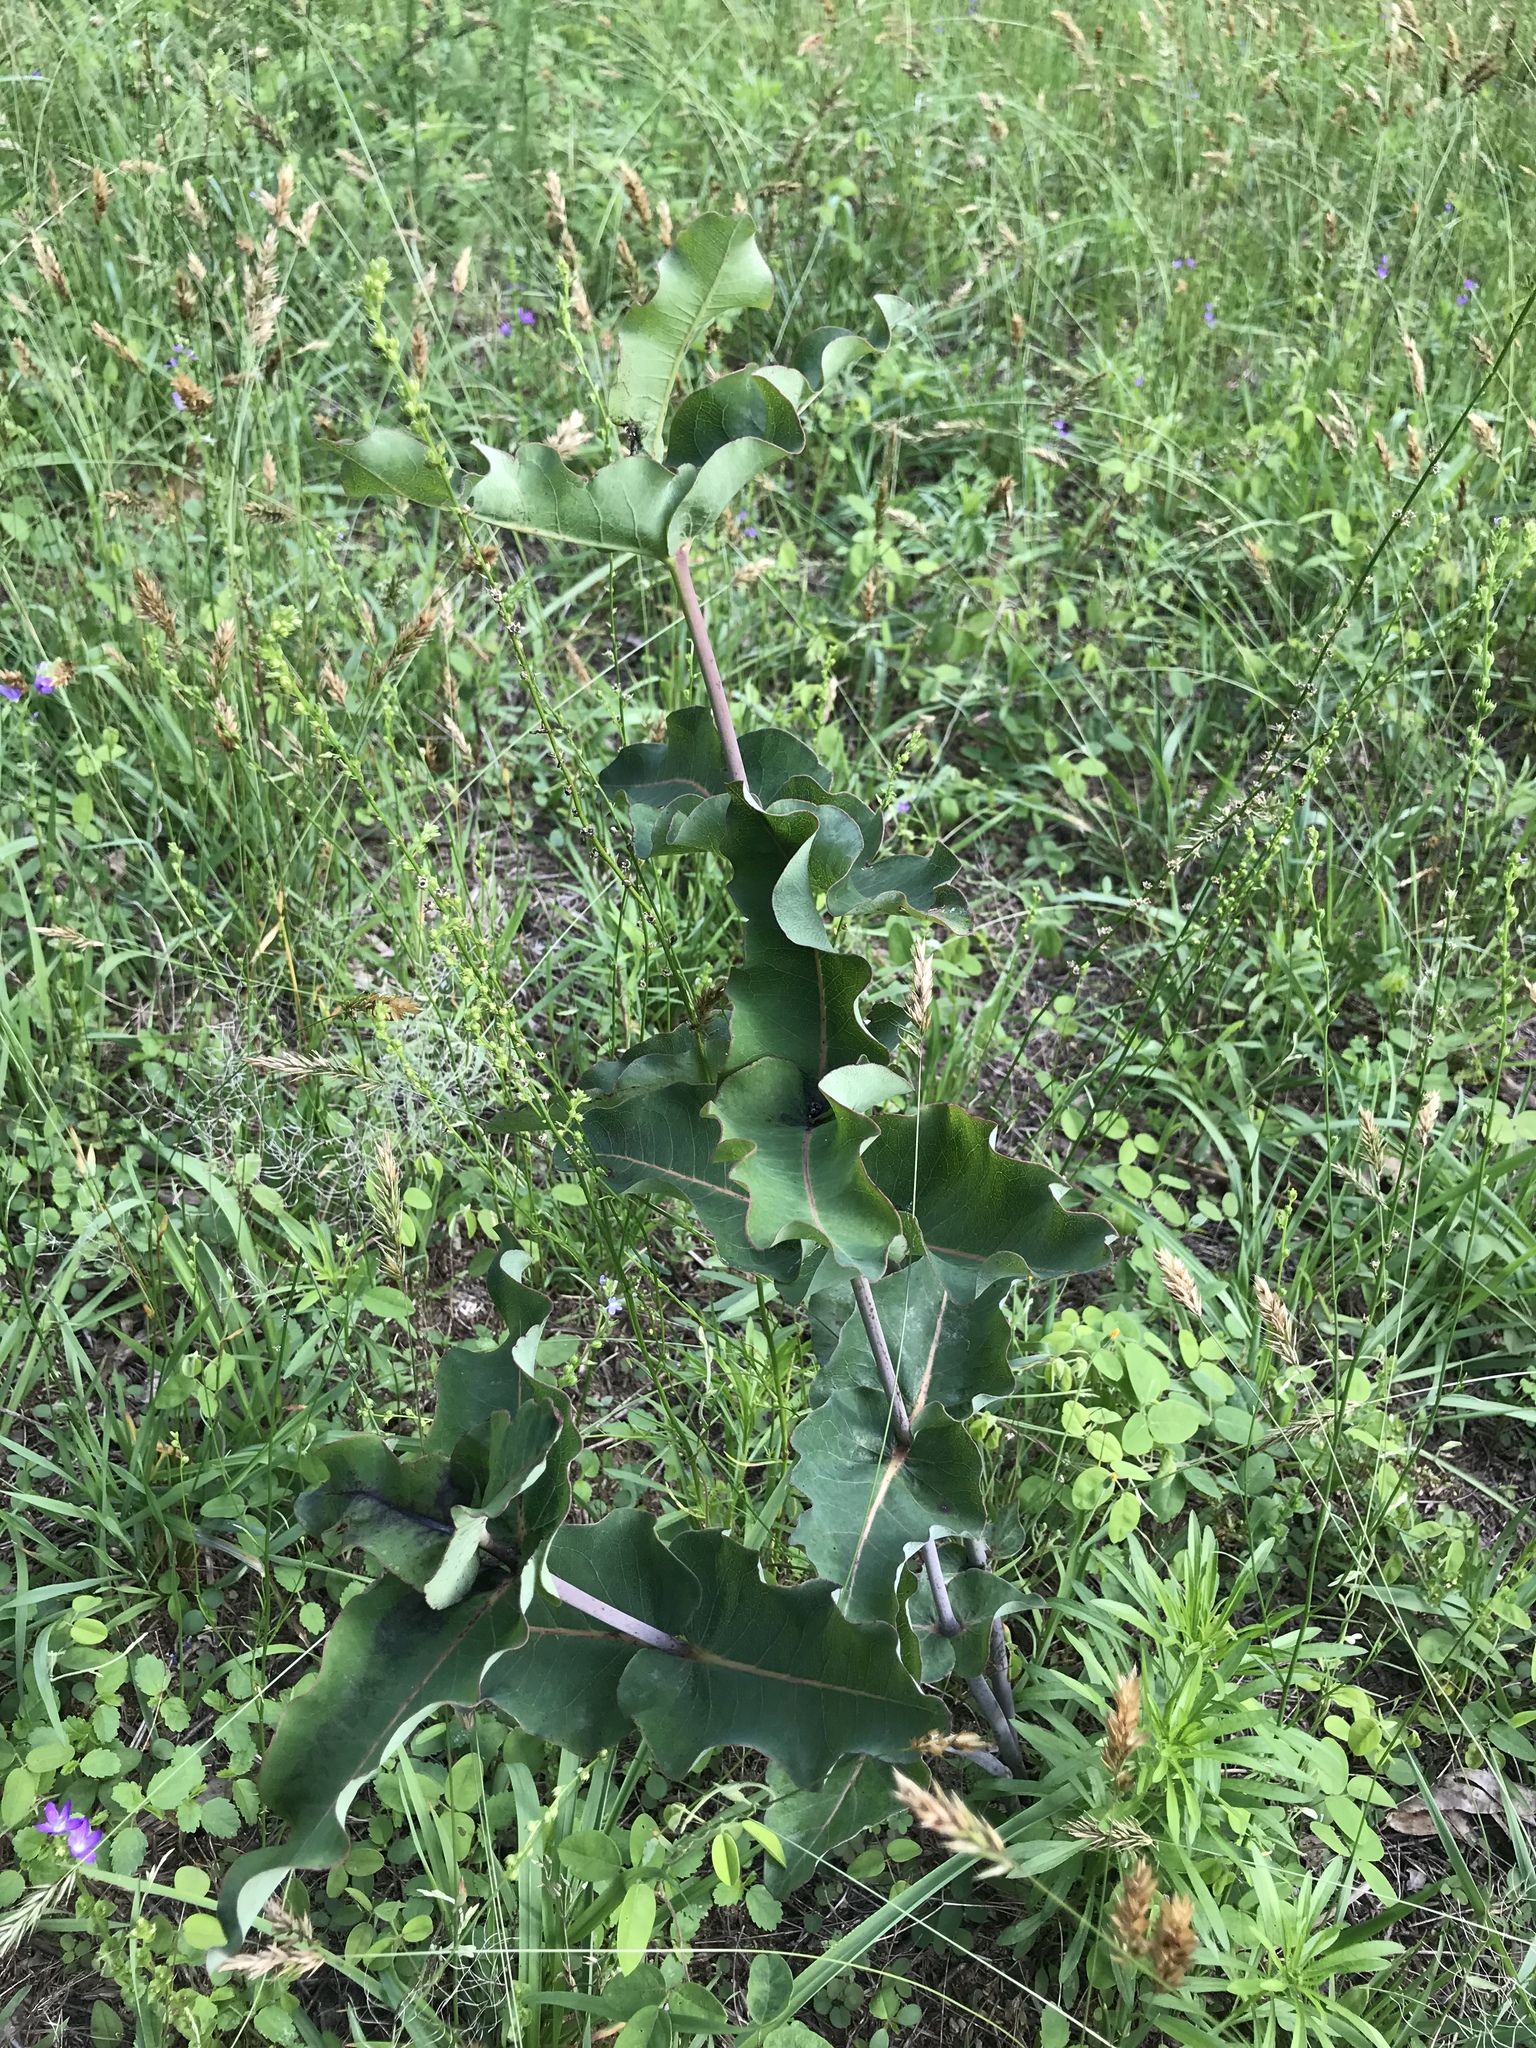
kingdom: Plantae
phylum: Tracheophyta
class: Magnoliopsida
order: Gentianales
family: Apocynaceae
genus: Asclepias
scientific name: Asclepias amplexicaulis
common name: Blunt-leaf milkweed
